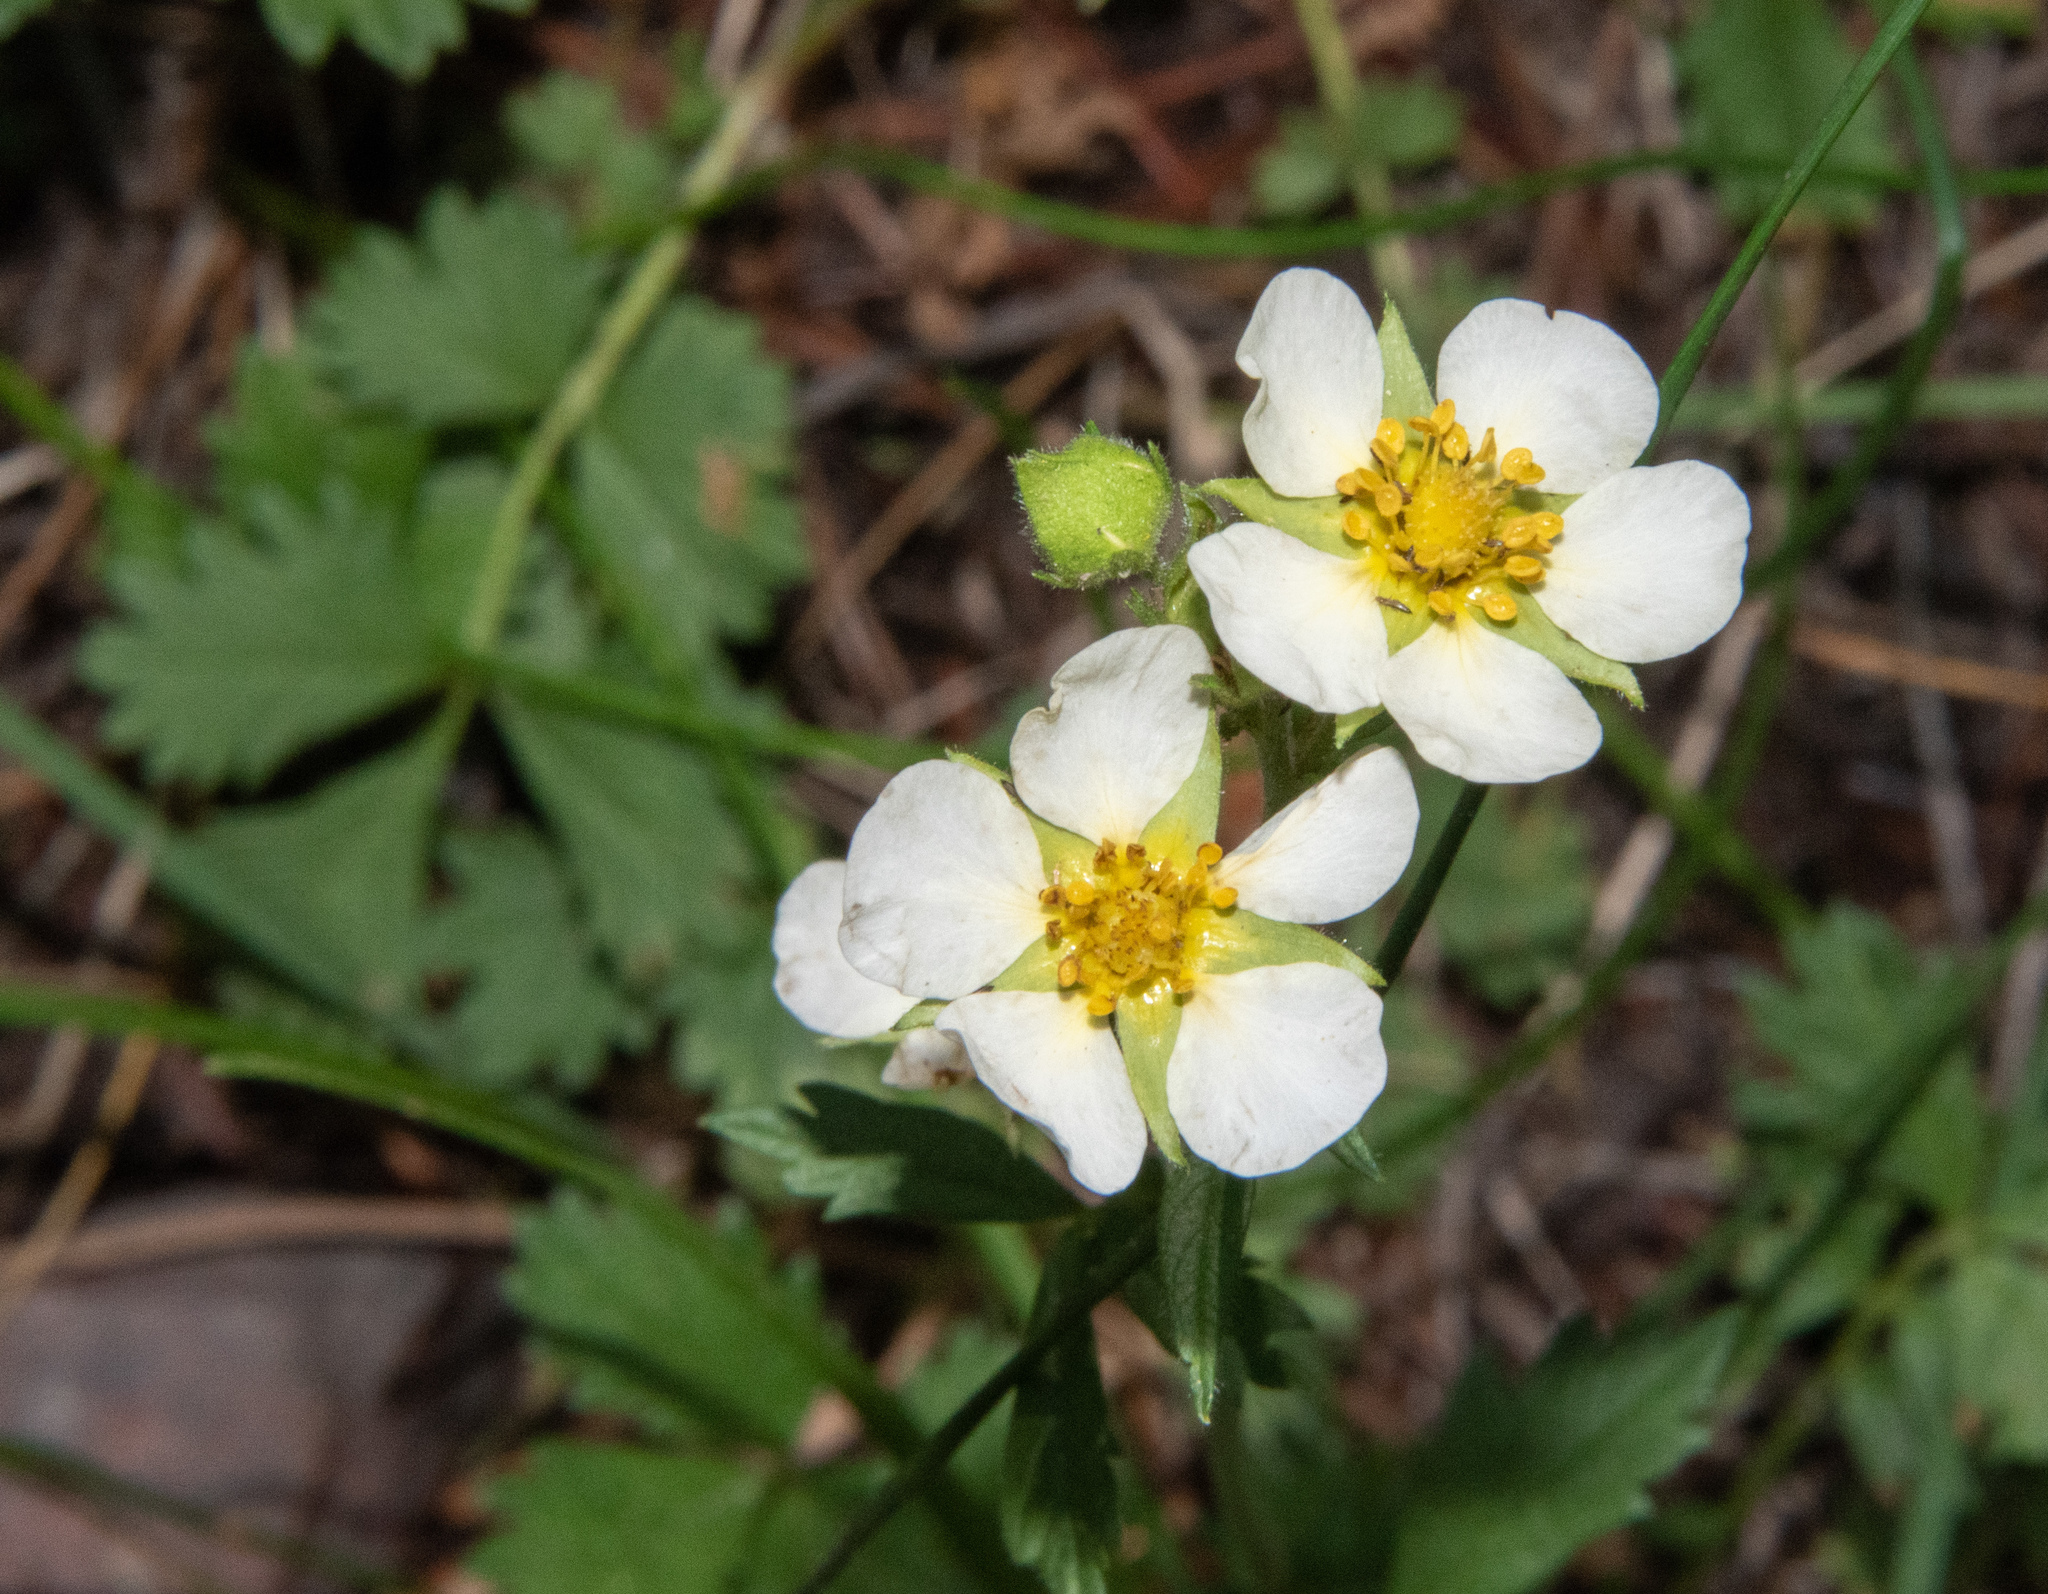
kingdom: Plantae
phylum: Tracheophyta
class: Magnoliopsida
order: Rosales
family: Rosaceae
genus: Fragaria
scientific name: Fragaria virginiana
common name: Thickleaved wild strawberry
